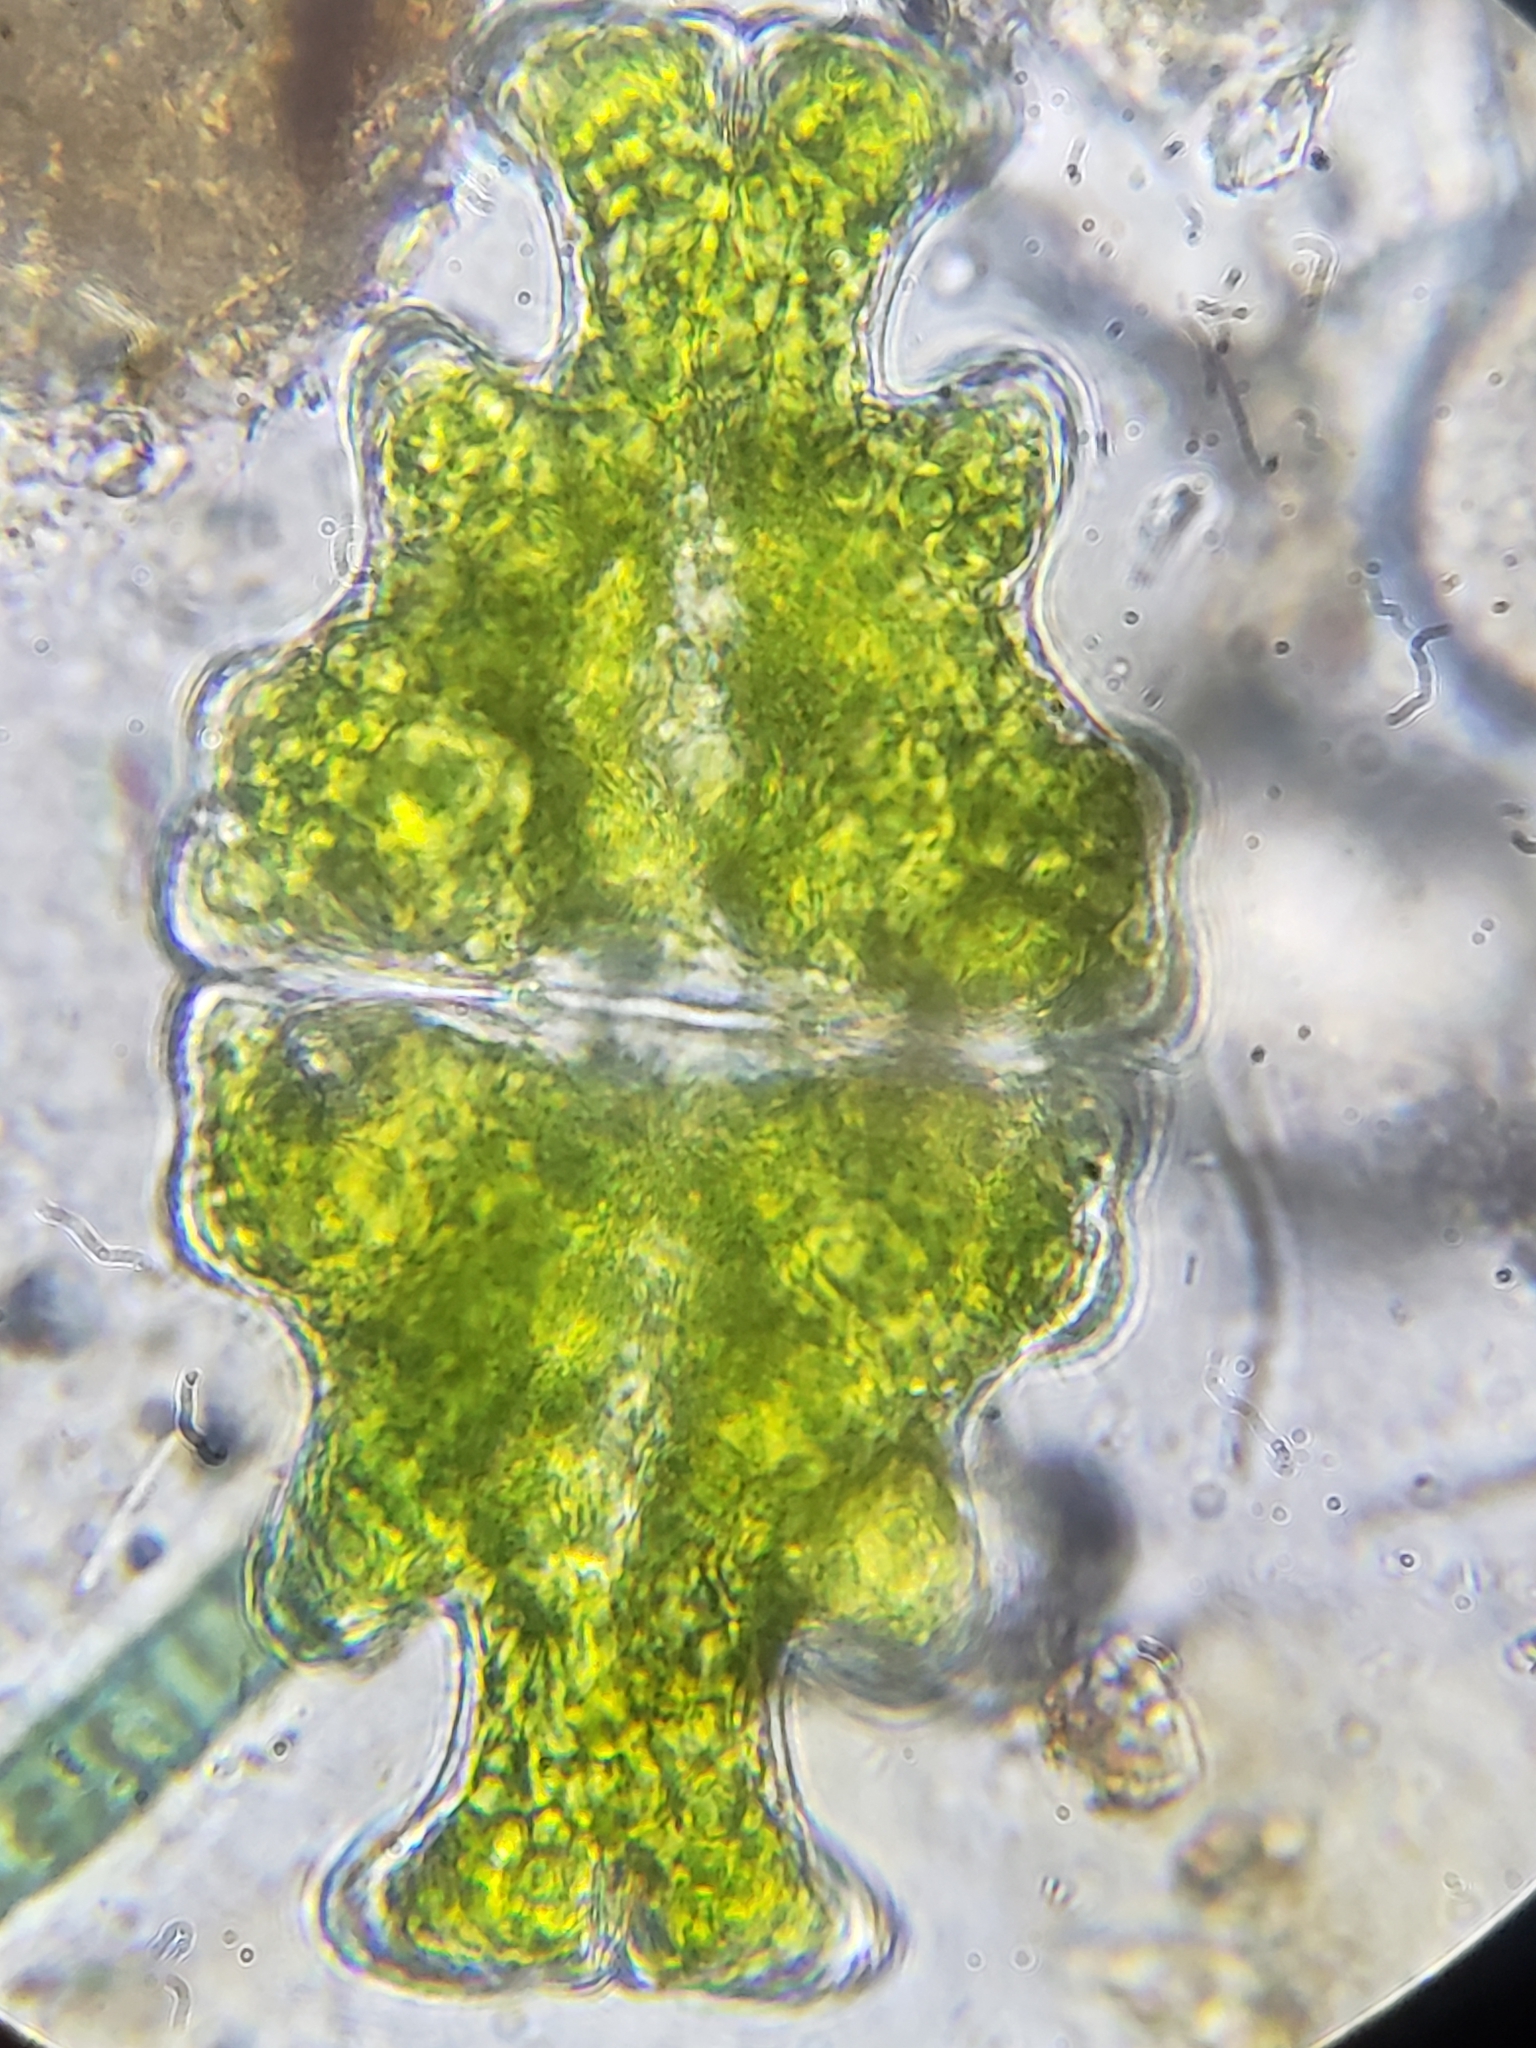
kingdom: Plantae
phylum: Charophyta
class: Conjugatophyceae
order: Desmidiales
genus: Euastrum
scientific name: Euastrum humerosum
